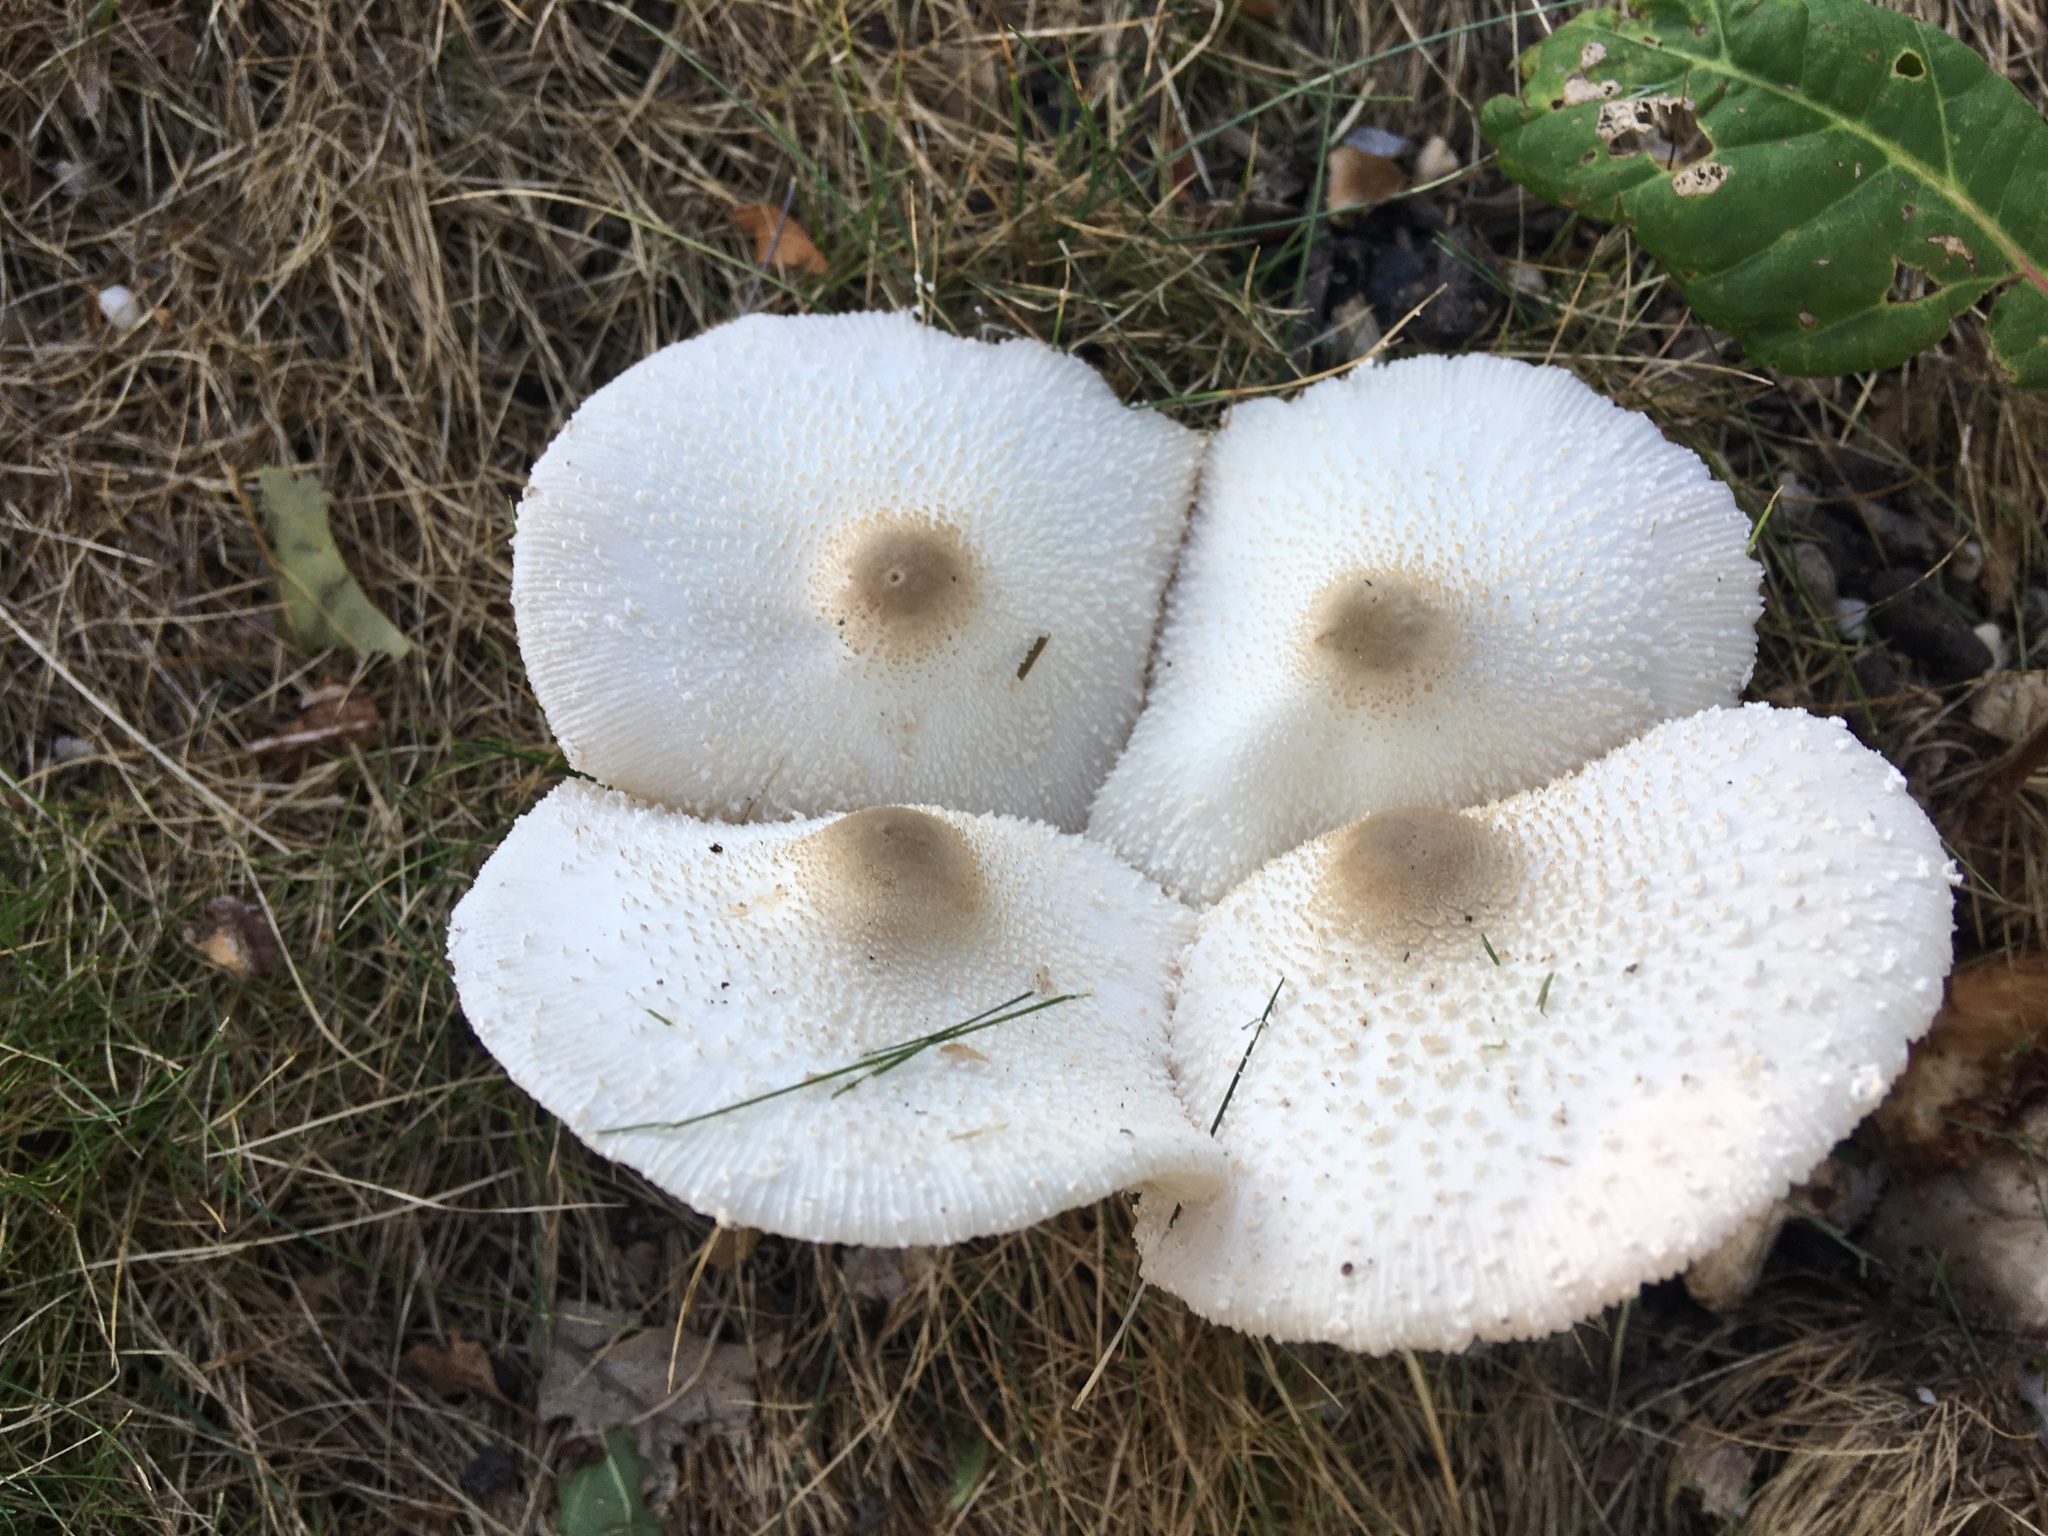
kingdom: Fungi
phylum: Basidiomycota
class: Agaricomycetes
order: Agaricales
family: Agaricaceae
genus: Leucocoprinus
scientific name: Leucocoprinus cepistipes
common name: Onion-stalk parasol
